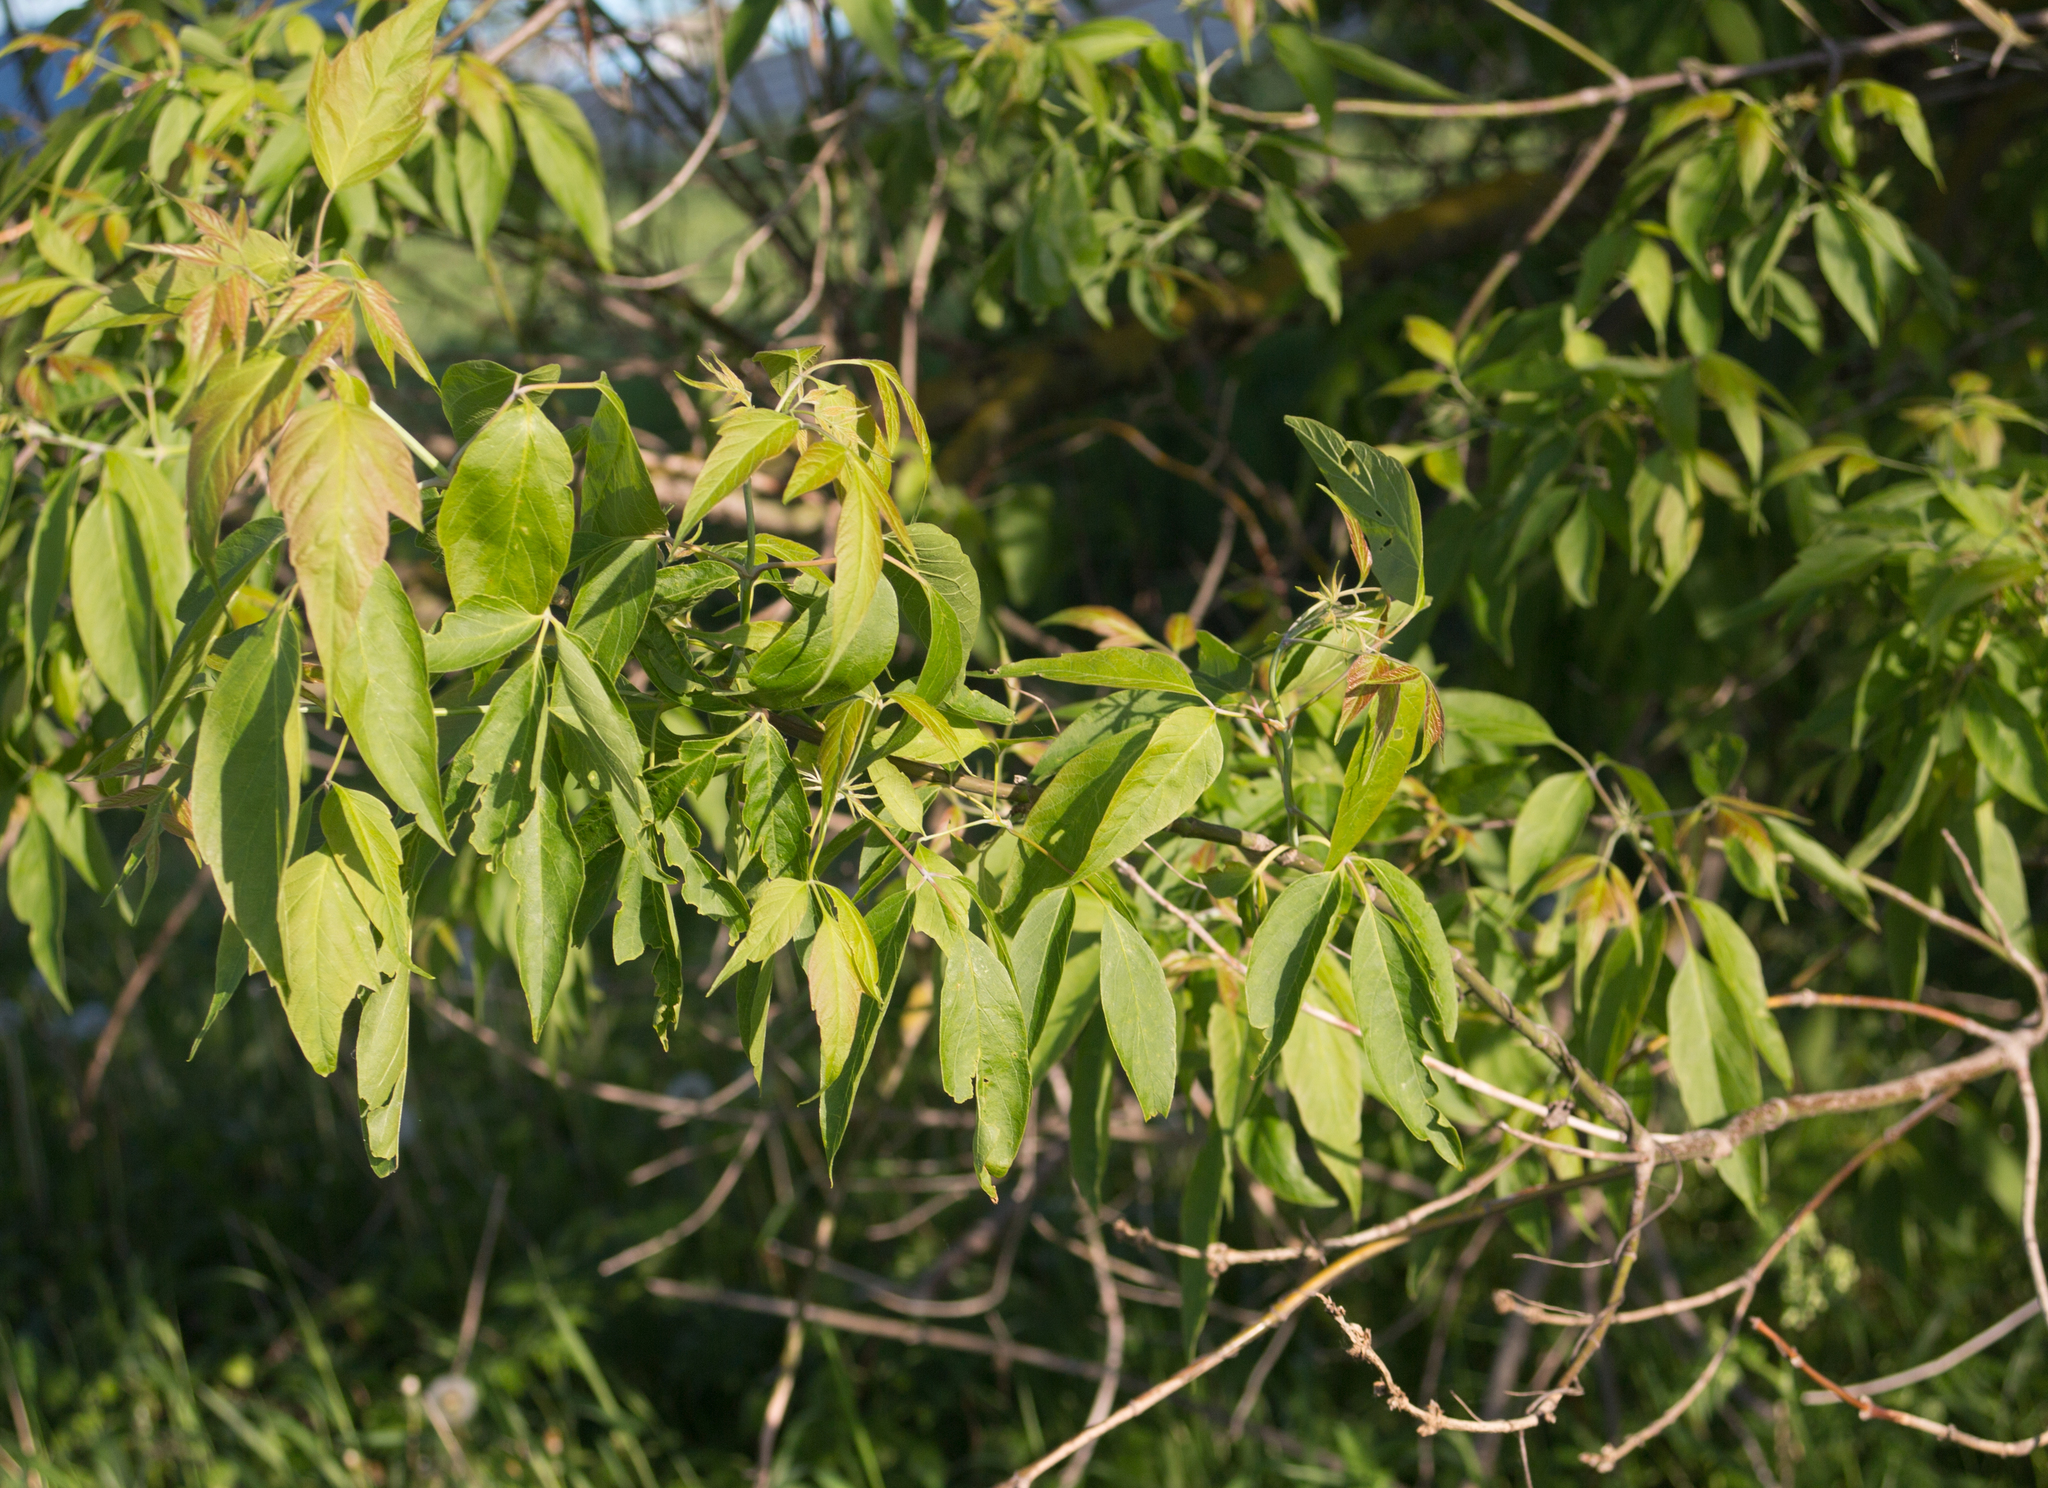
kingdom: Plantae
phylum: Tracheophyta
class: Magnoliopsida
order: Sapindales
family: Sapindaceae
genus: Acer
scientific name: Acer negundo
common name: Ashleaf maple
